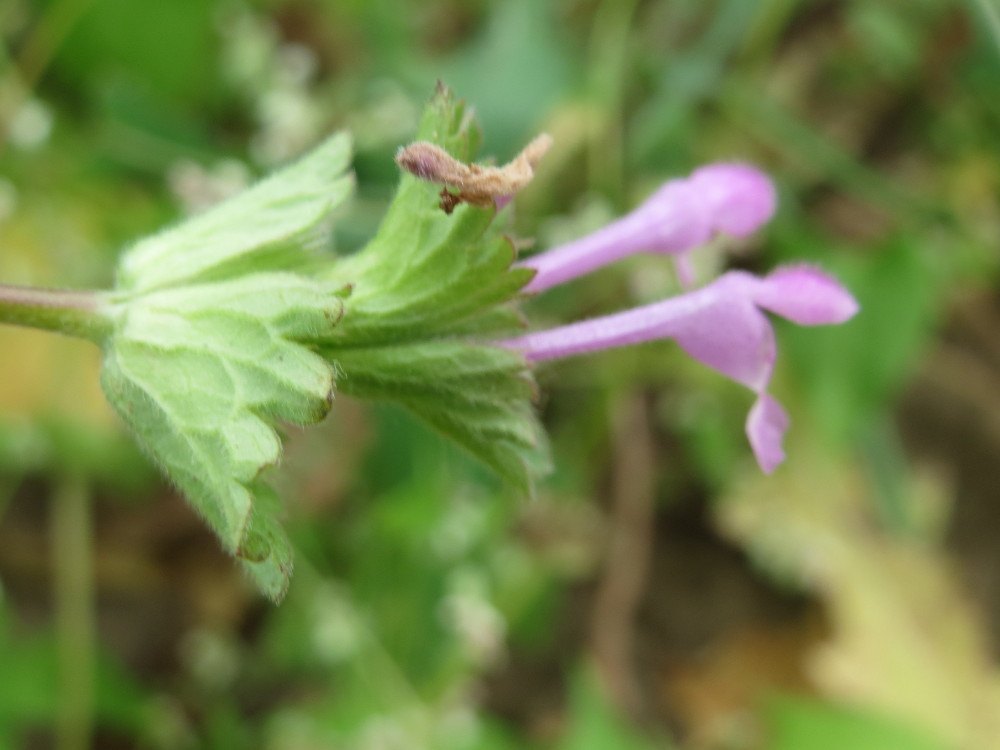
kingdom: Plantae
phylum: Tracheophyta
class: Magnoliopsida
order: Lamiales
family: Lamiaceae
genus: Lamium
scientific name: Lamium amplexicaule
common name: Henbit dead-nettle
